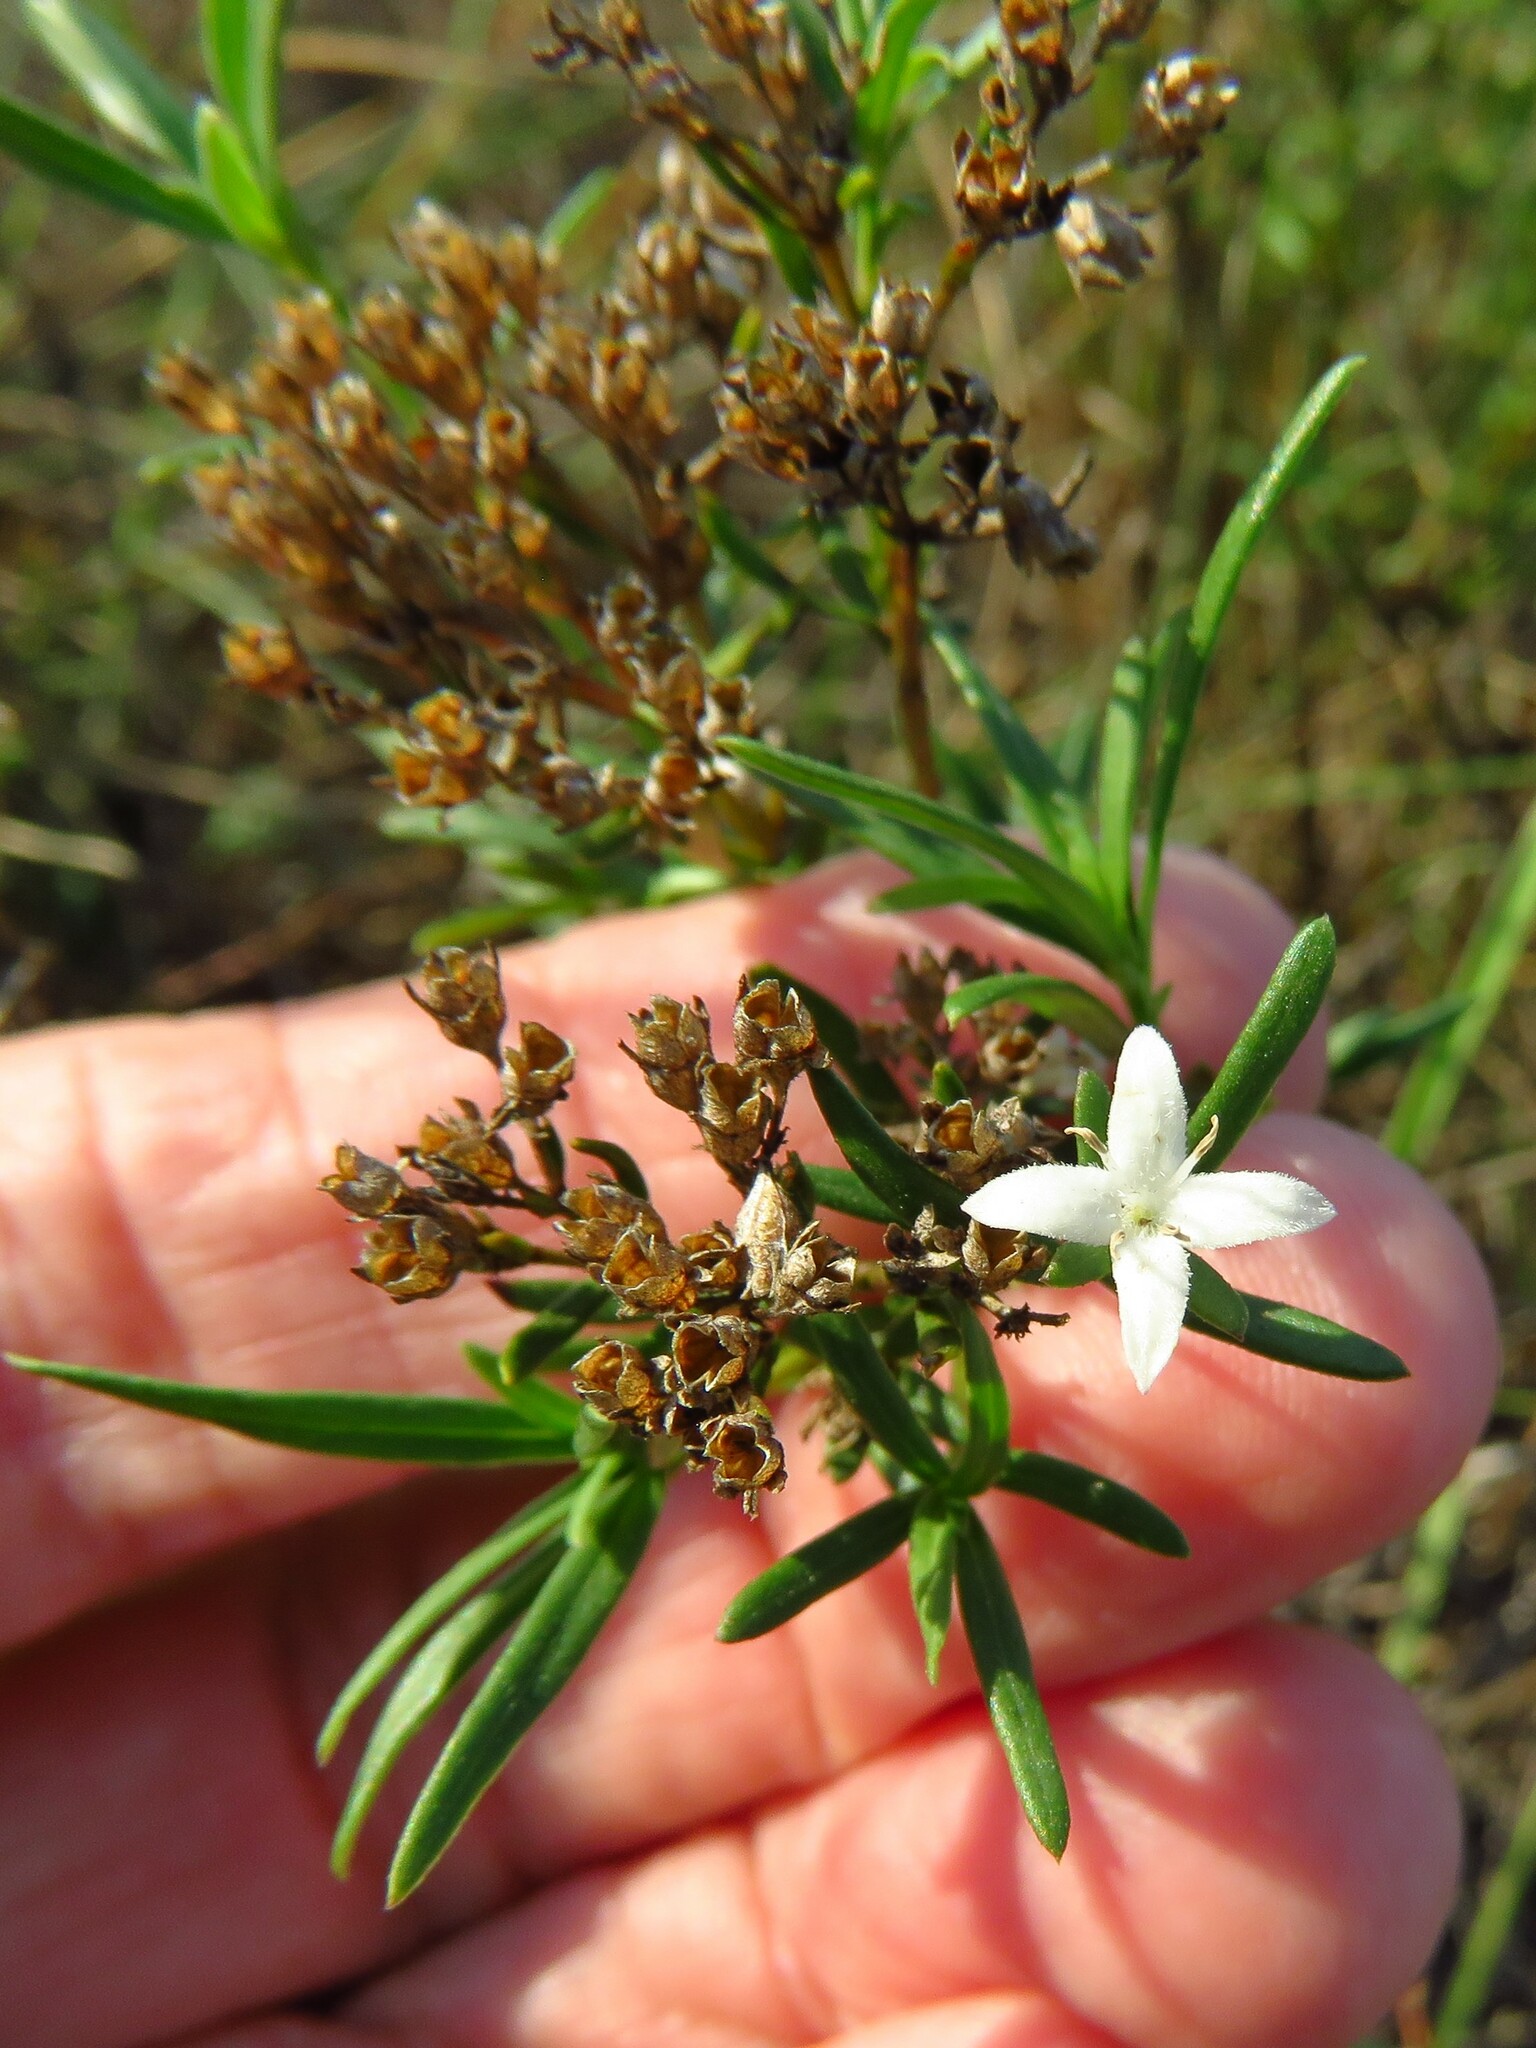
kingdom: Plantae
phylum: Tracheophyta
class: Magnoliopsida
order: Gentianales
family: Rubiaceae
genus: Stenaria
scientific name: Stenaria nigricans
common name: Diamondflowers
